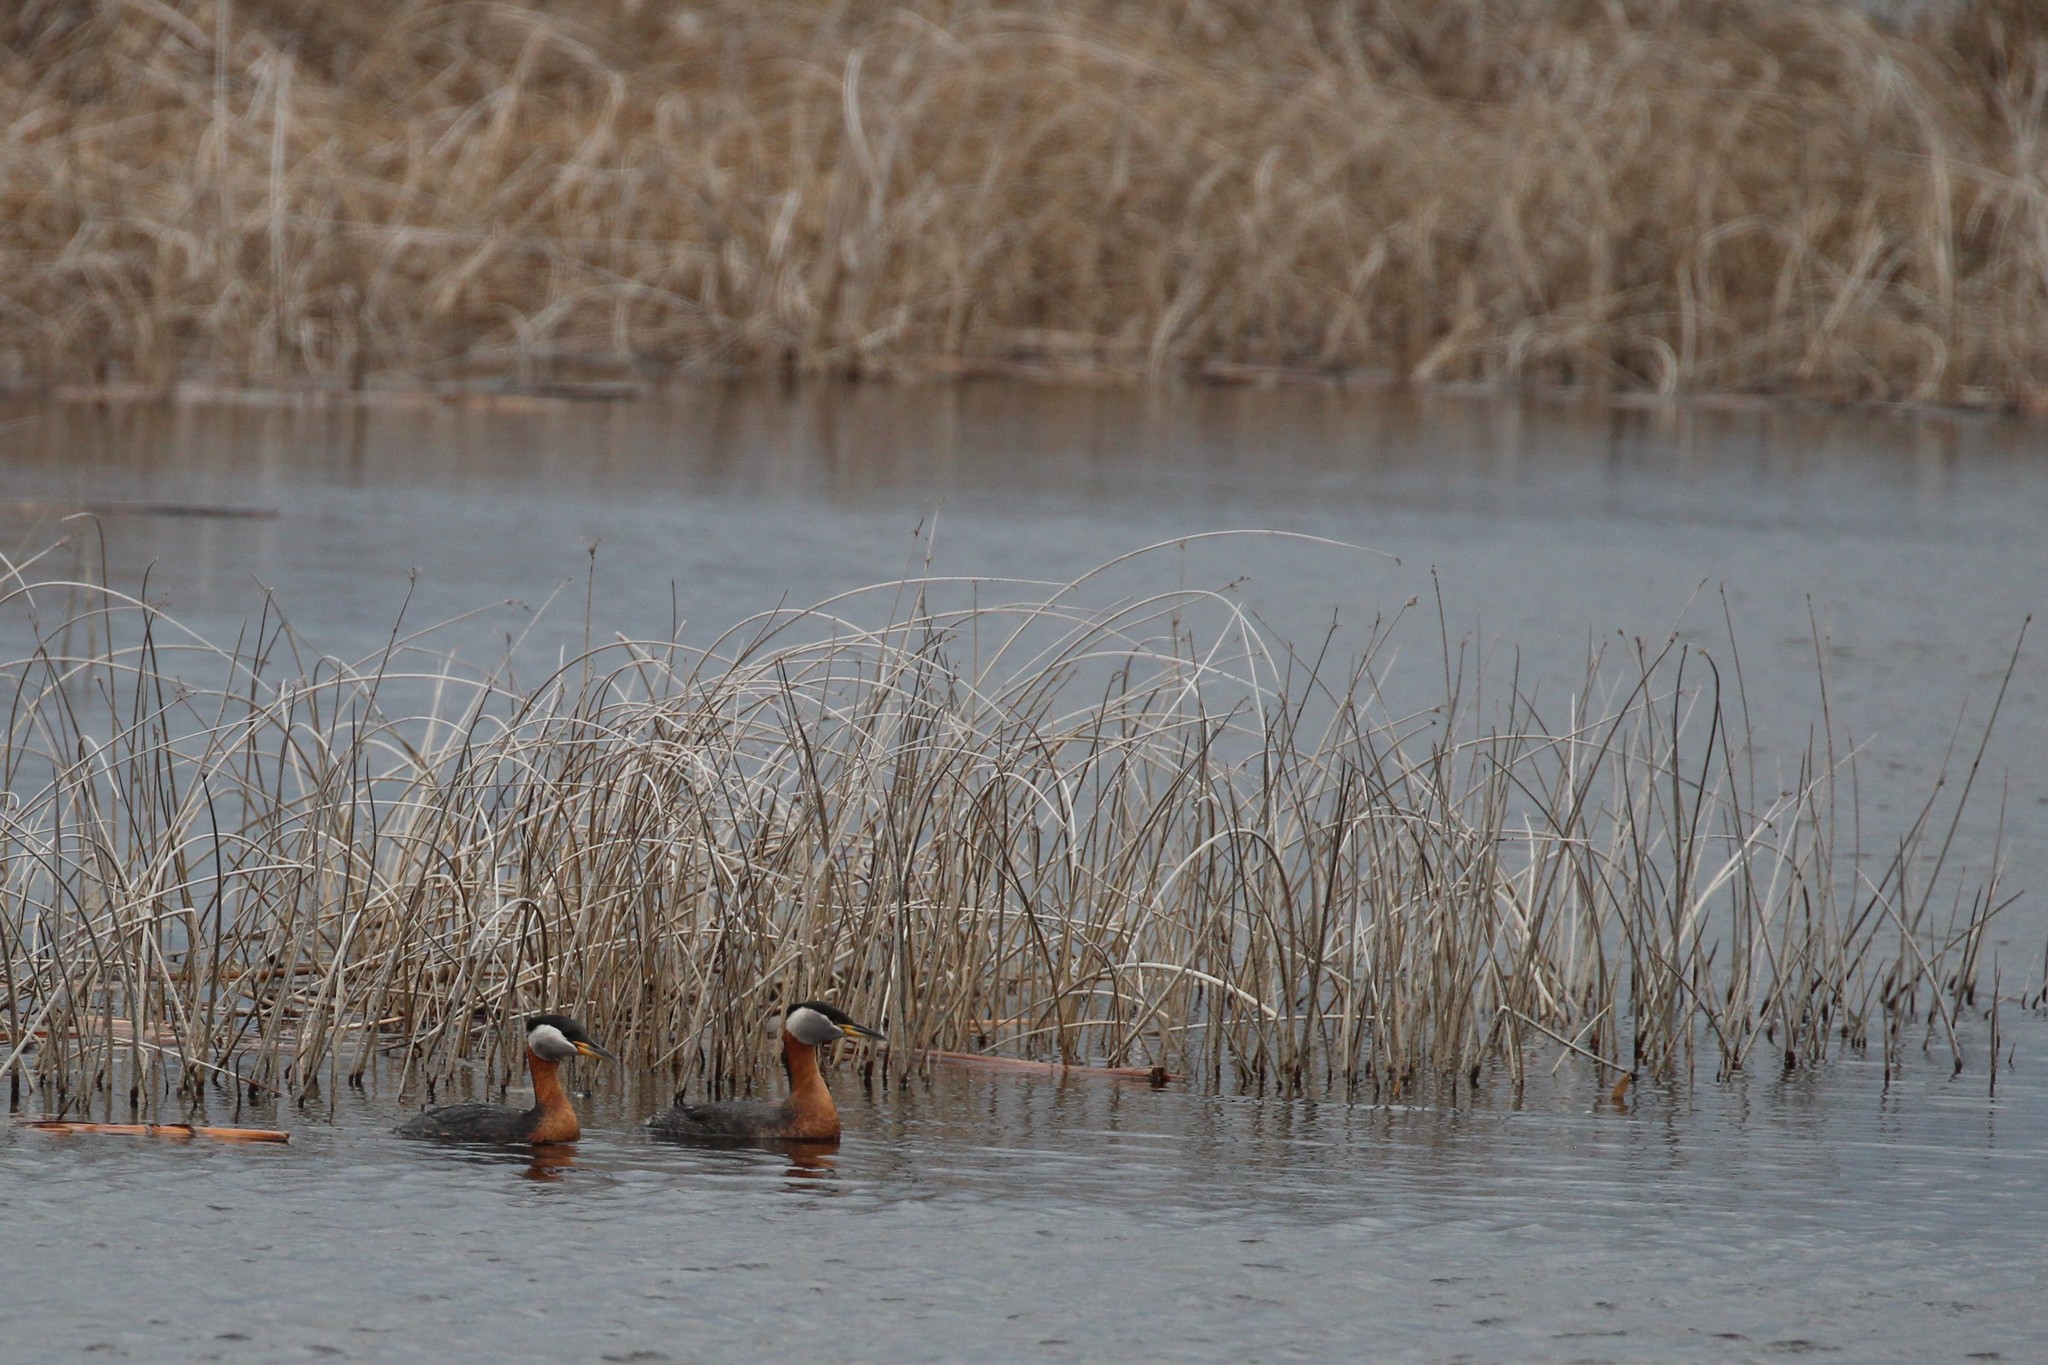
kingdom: Animalia
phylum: Chordata
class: Aves
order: Podicipediformes
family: Podicipedidae
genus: Podiceps
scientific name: Podiceps grisegena
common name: Red-necked grebe
